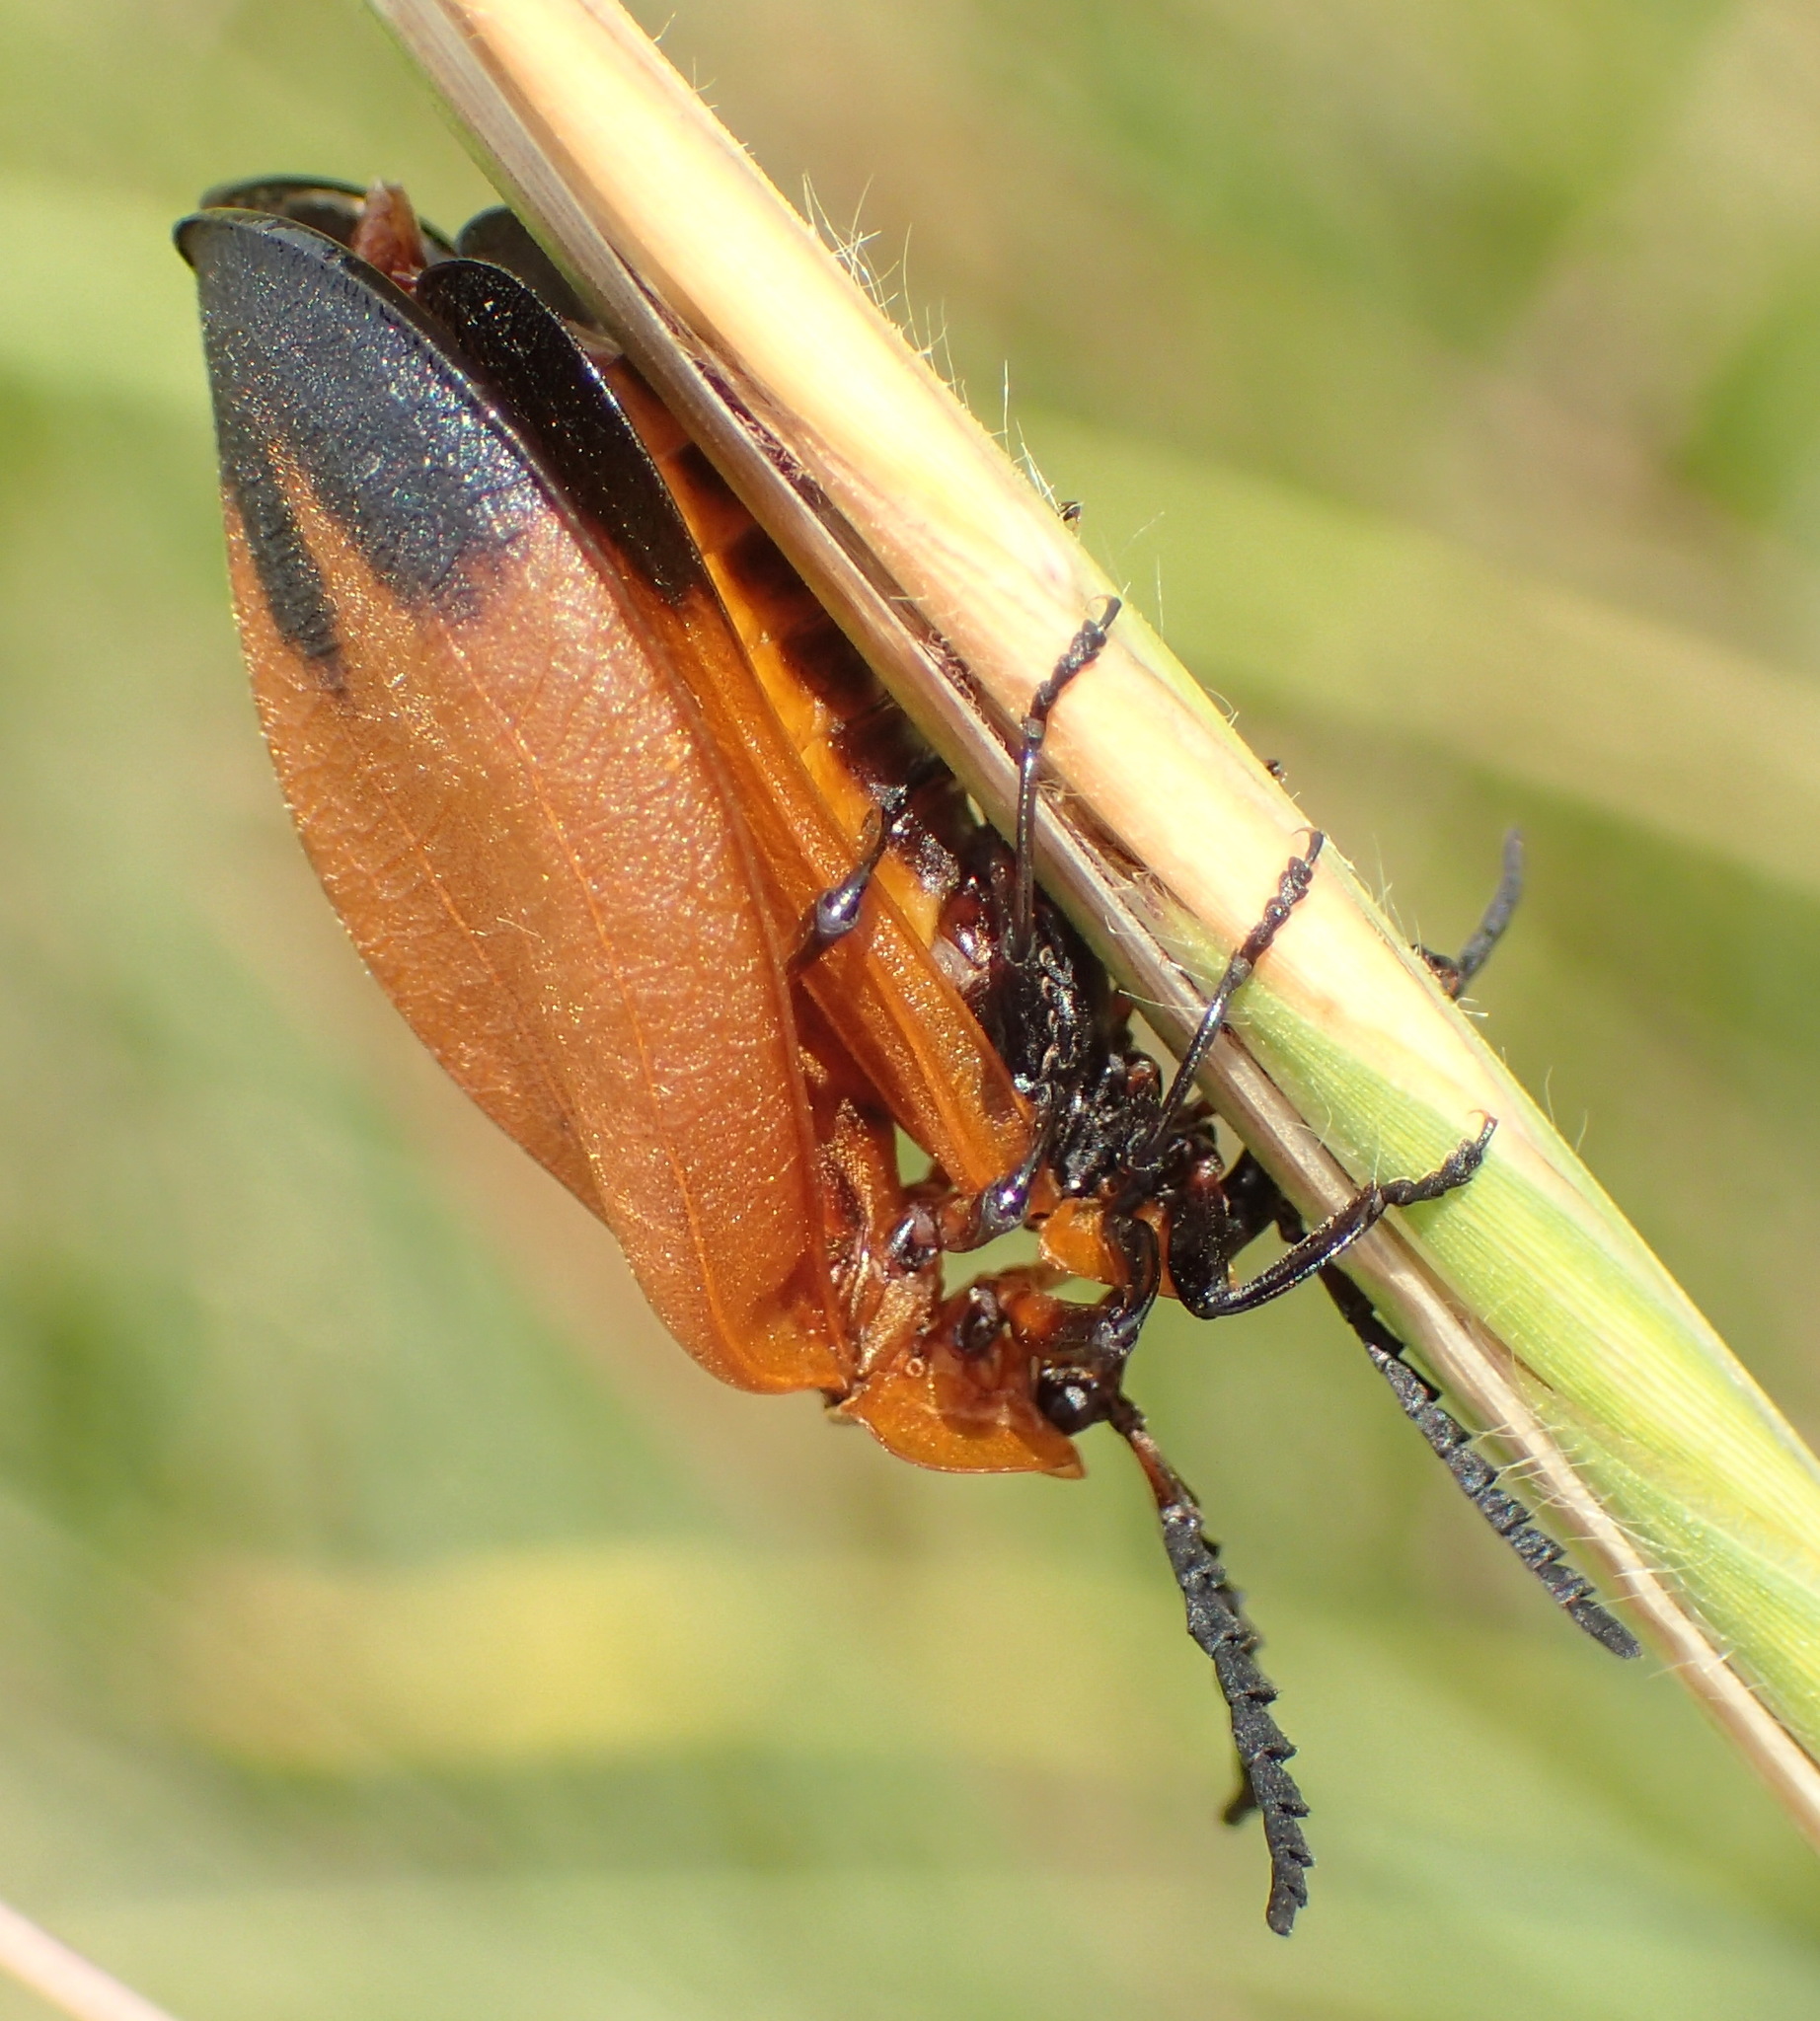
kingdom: Animalia
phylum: Arthropoda
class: Insecta
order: Coleoptera
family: Lycidae
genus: Lycus
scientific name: Lycus
